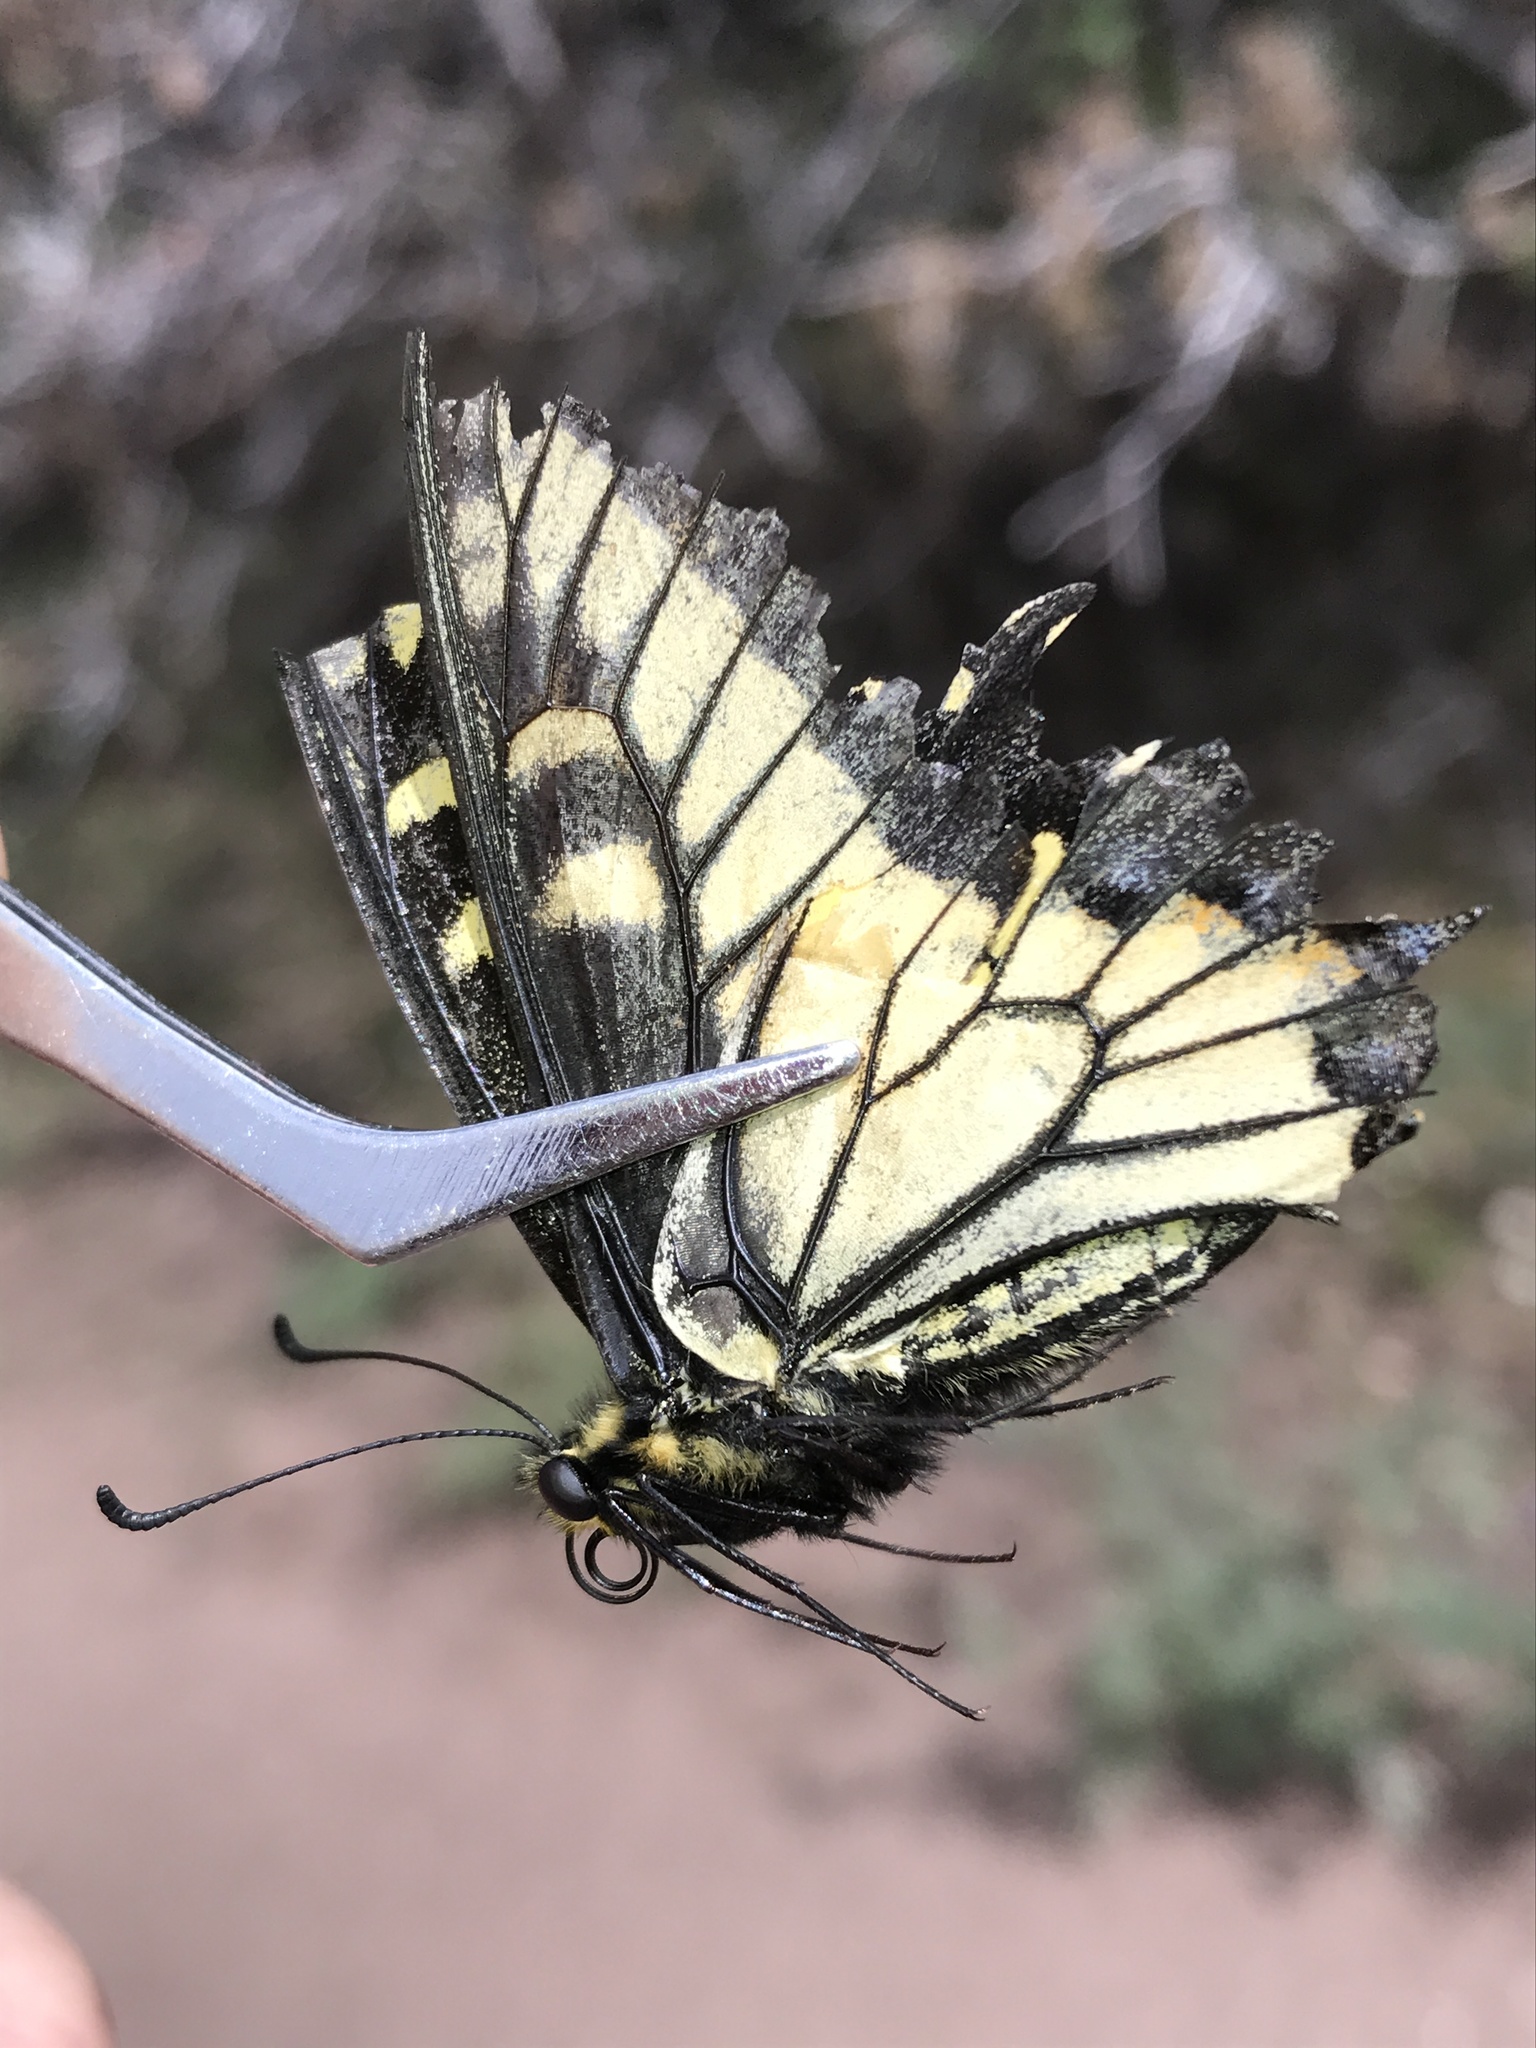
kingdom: Animalia
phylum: Arthropoda
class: Insecta
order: Lepidoptera
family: Papilionidae
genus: Papilio
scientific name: Papilio zelicaon
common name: Anise swallowtail
